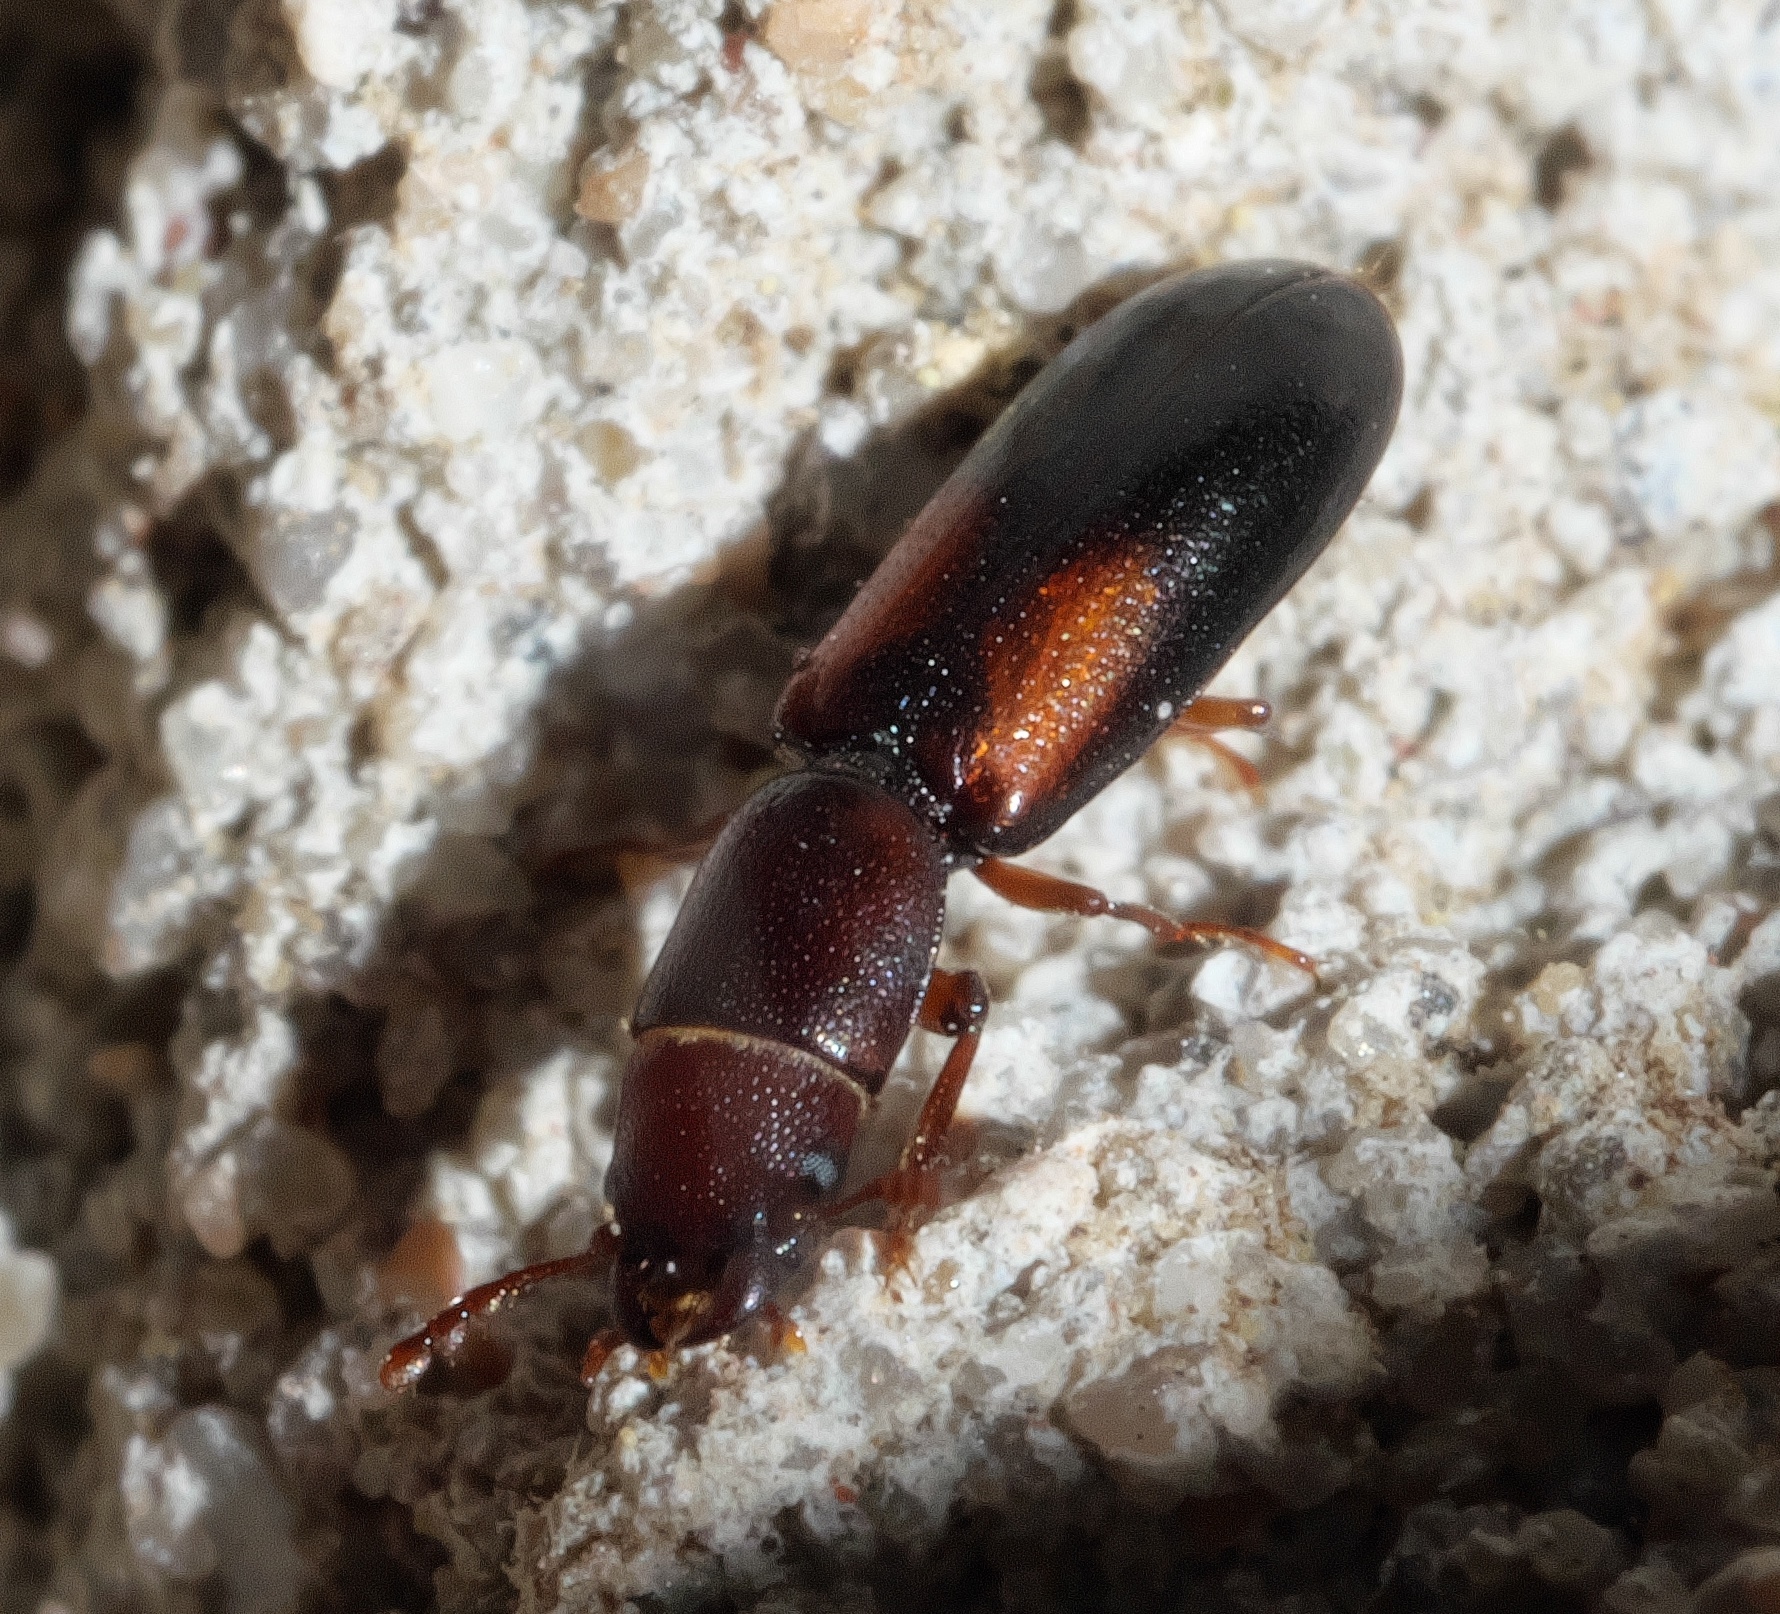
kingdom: Animalia
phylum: Arthropoda
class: Insecta
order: Coleoptera
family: Trogossitidae
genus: Corticotomus
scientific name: Corticotomus
